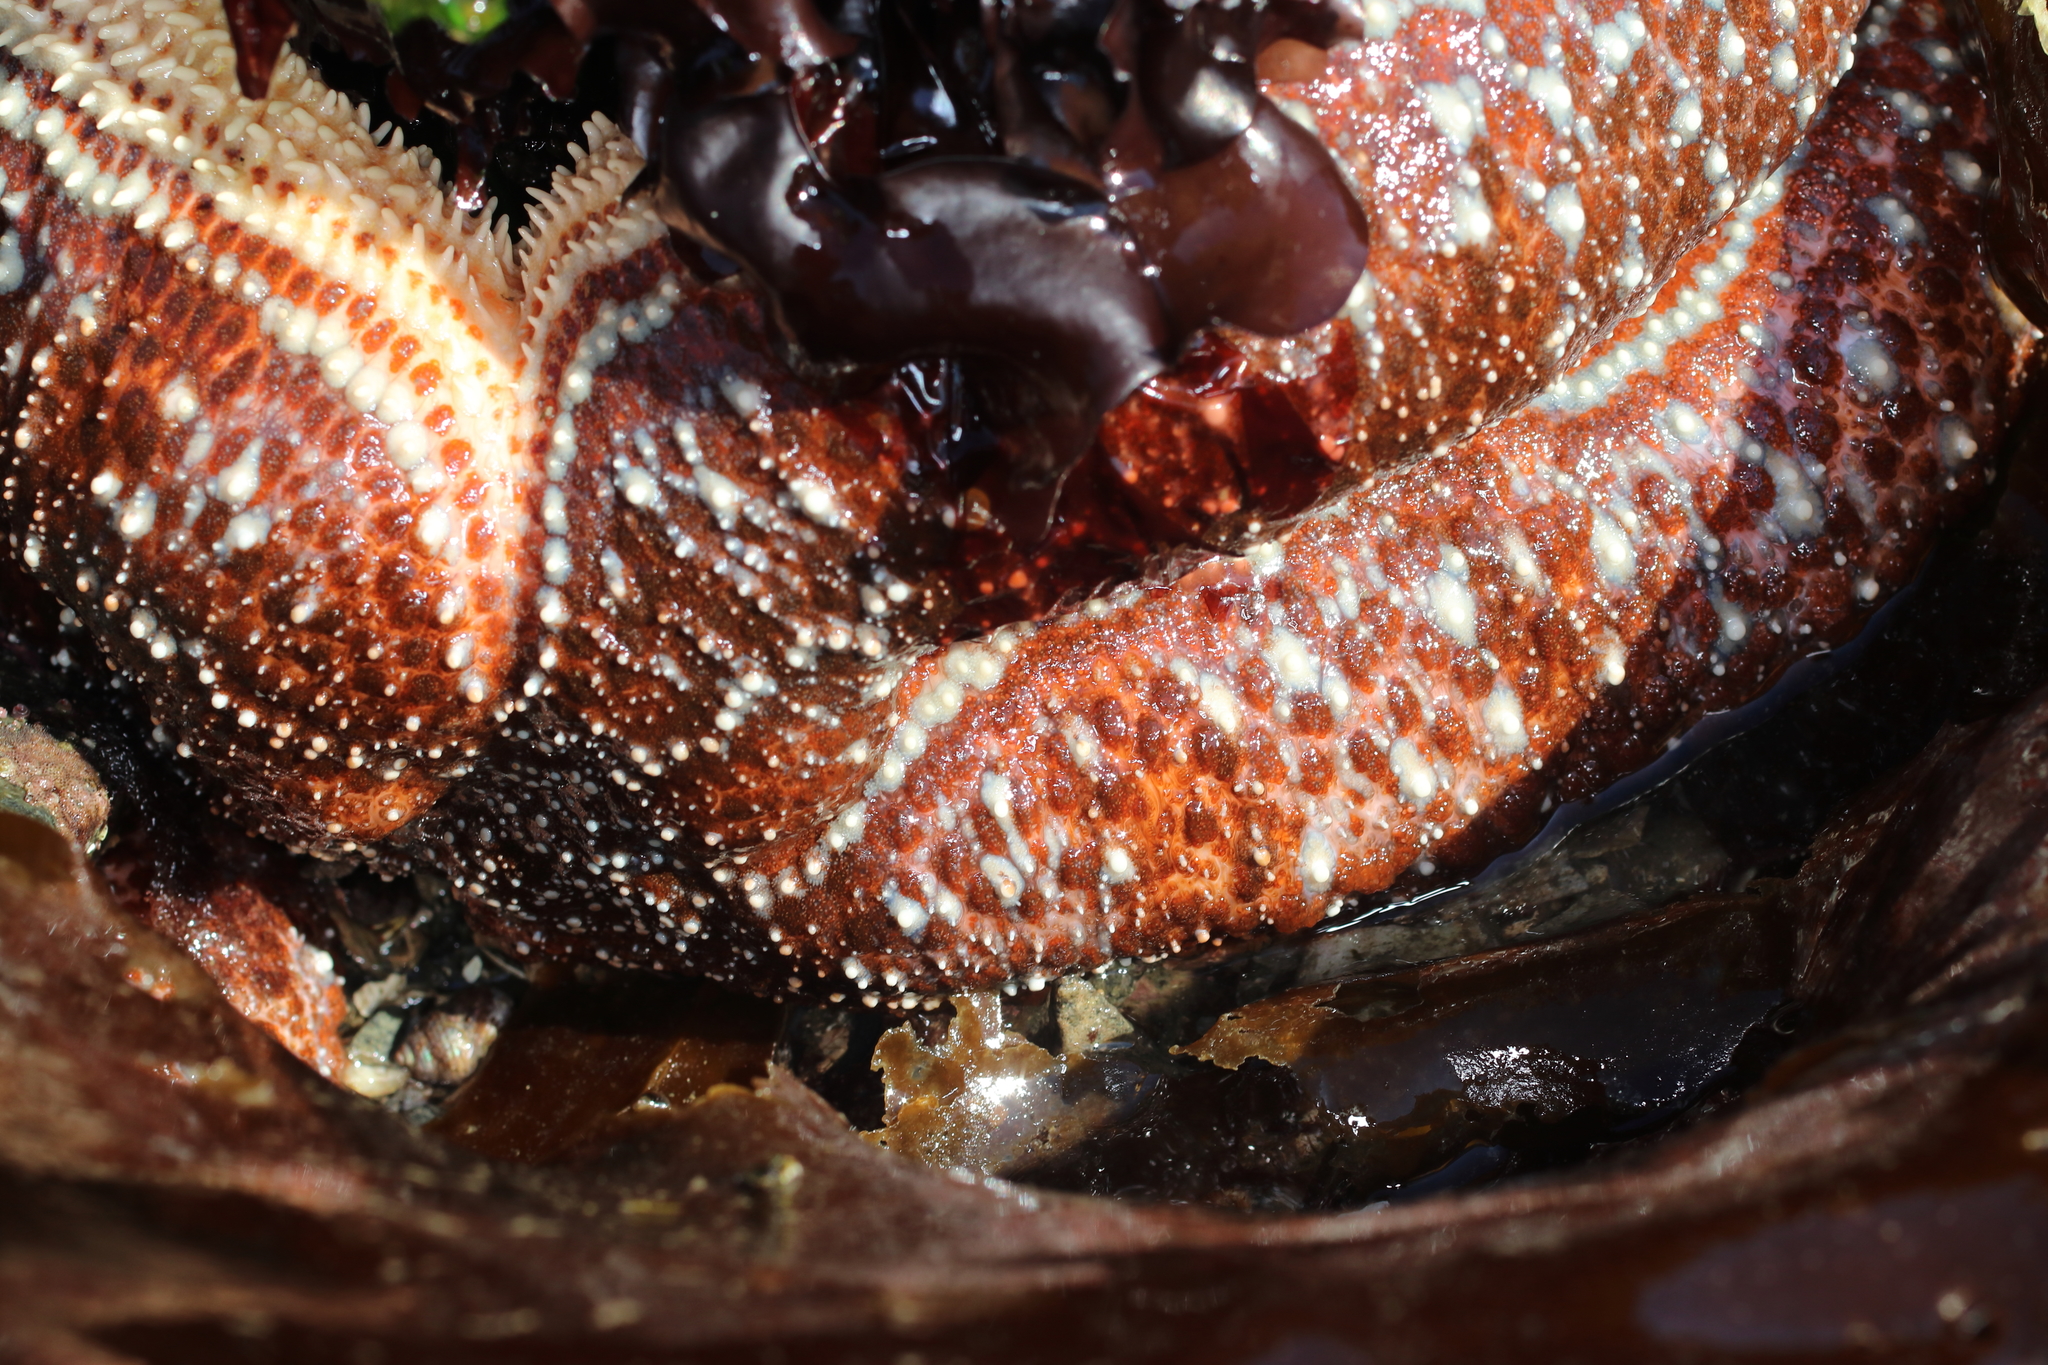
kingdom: Animalia
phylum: Echinodermata
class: Asteroidea
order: Forcipulatida
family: Asteriidae
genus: Evasterias
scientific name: Evasterias troschelii
